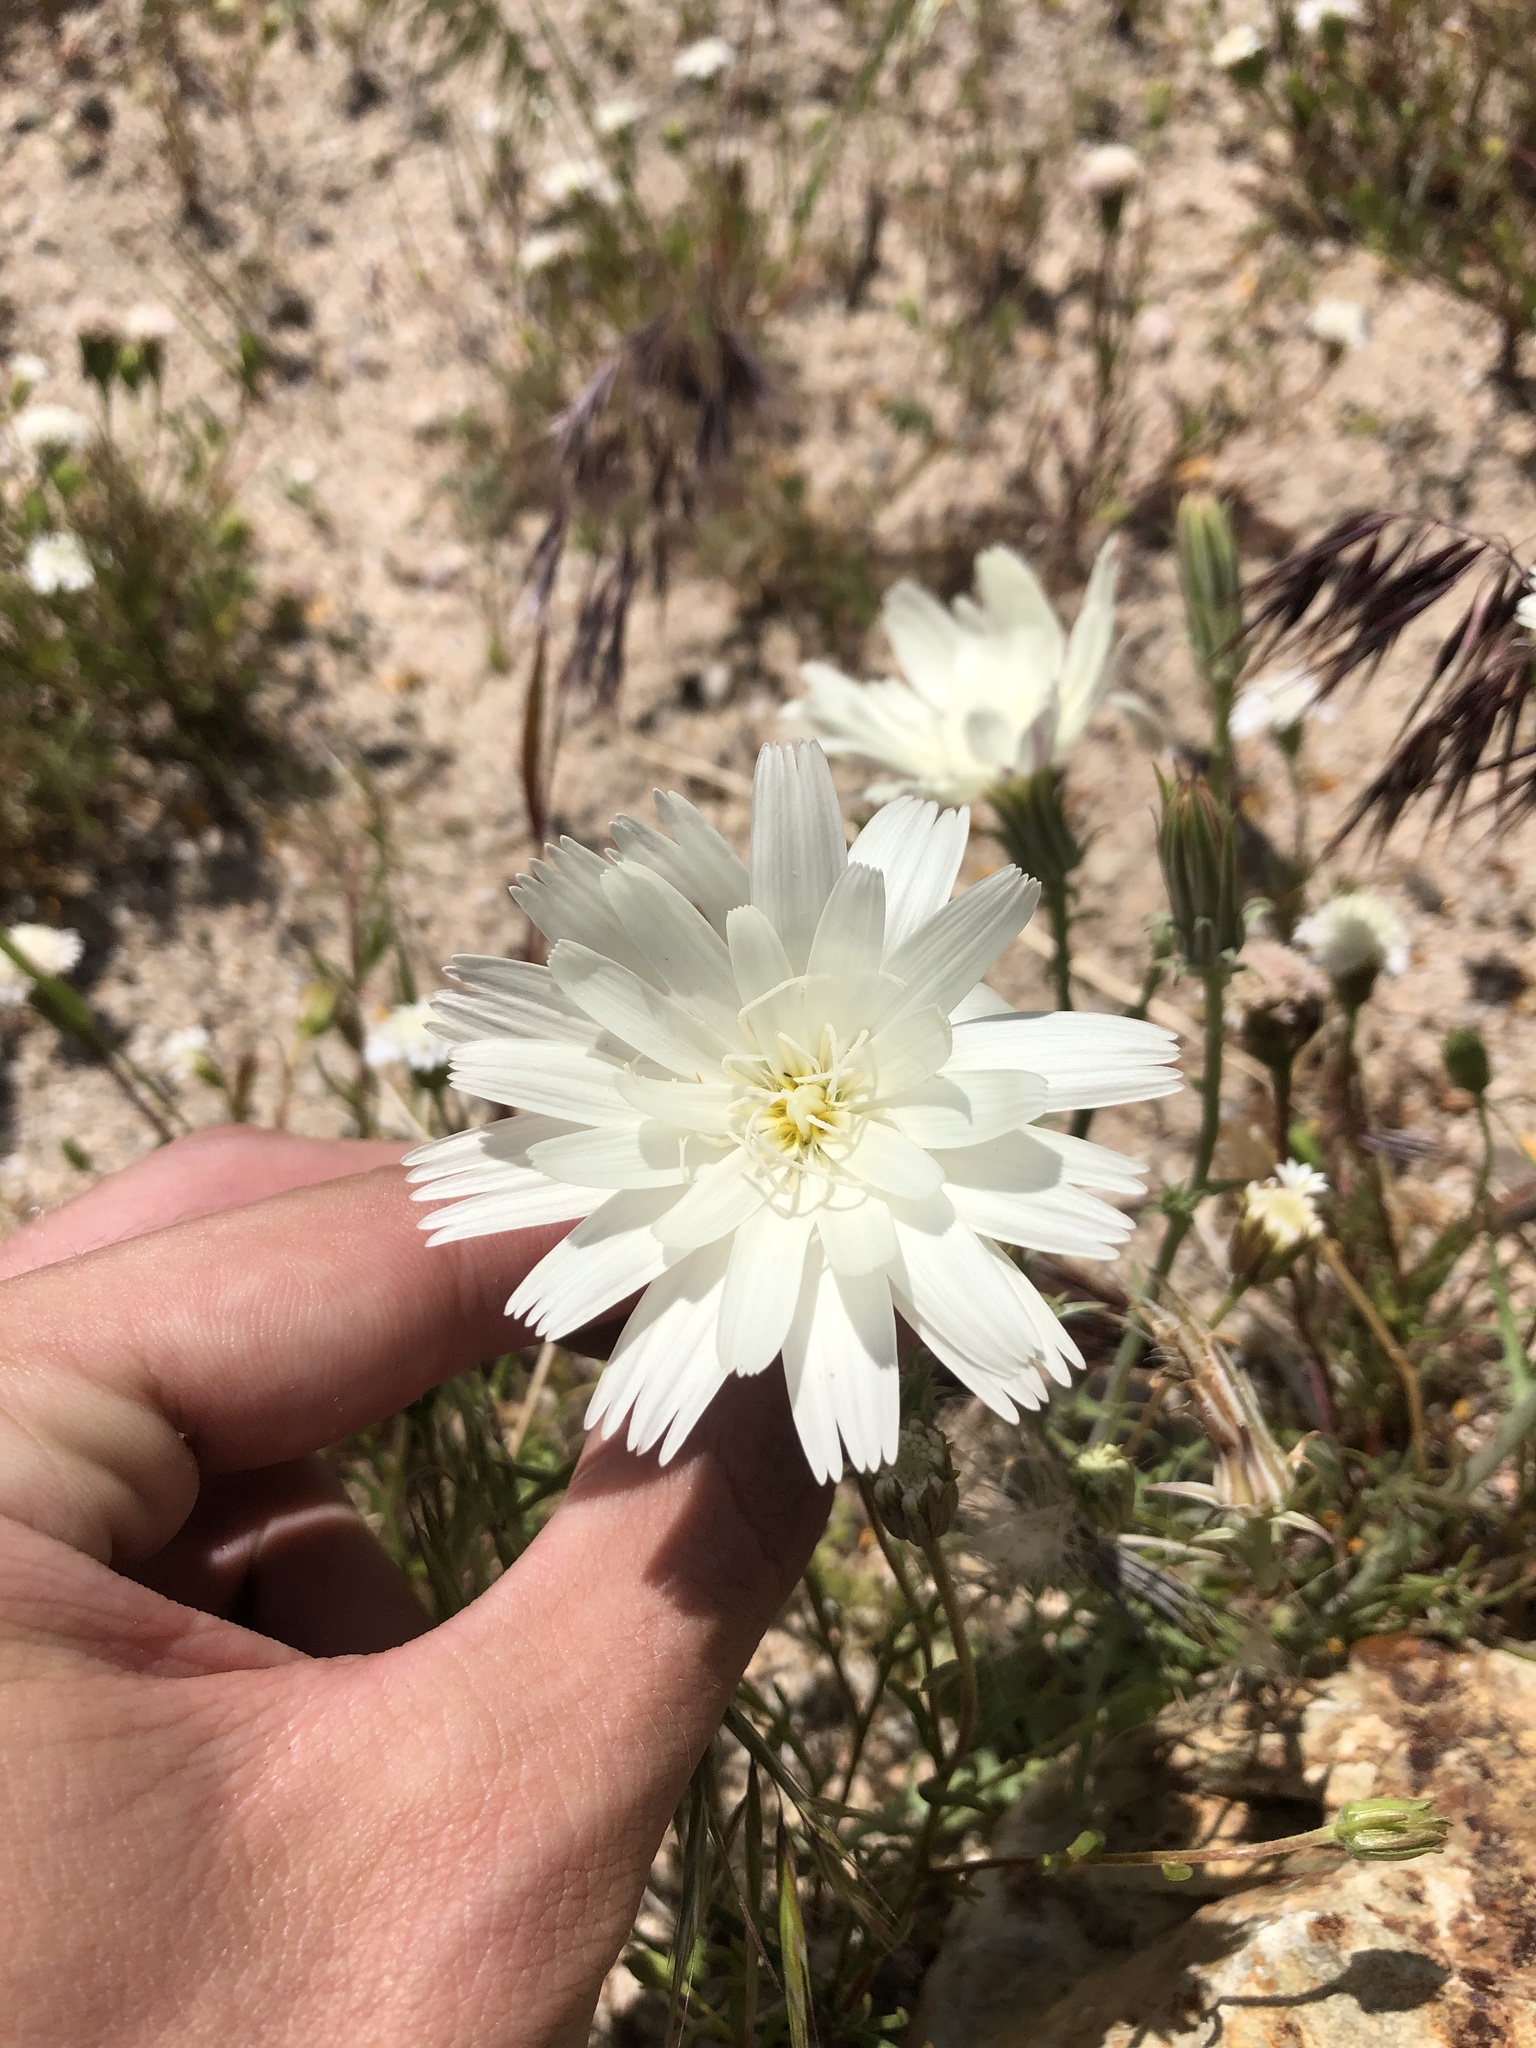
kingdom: Plantae
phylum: Tracheophyta
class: Magnoliopsida
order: Asterales
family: Asteraceae
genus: Rafinesquia
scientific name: Rafinesquia neomexicana
